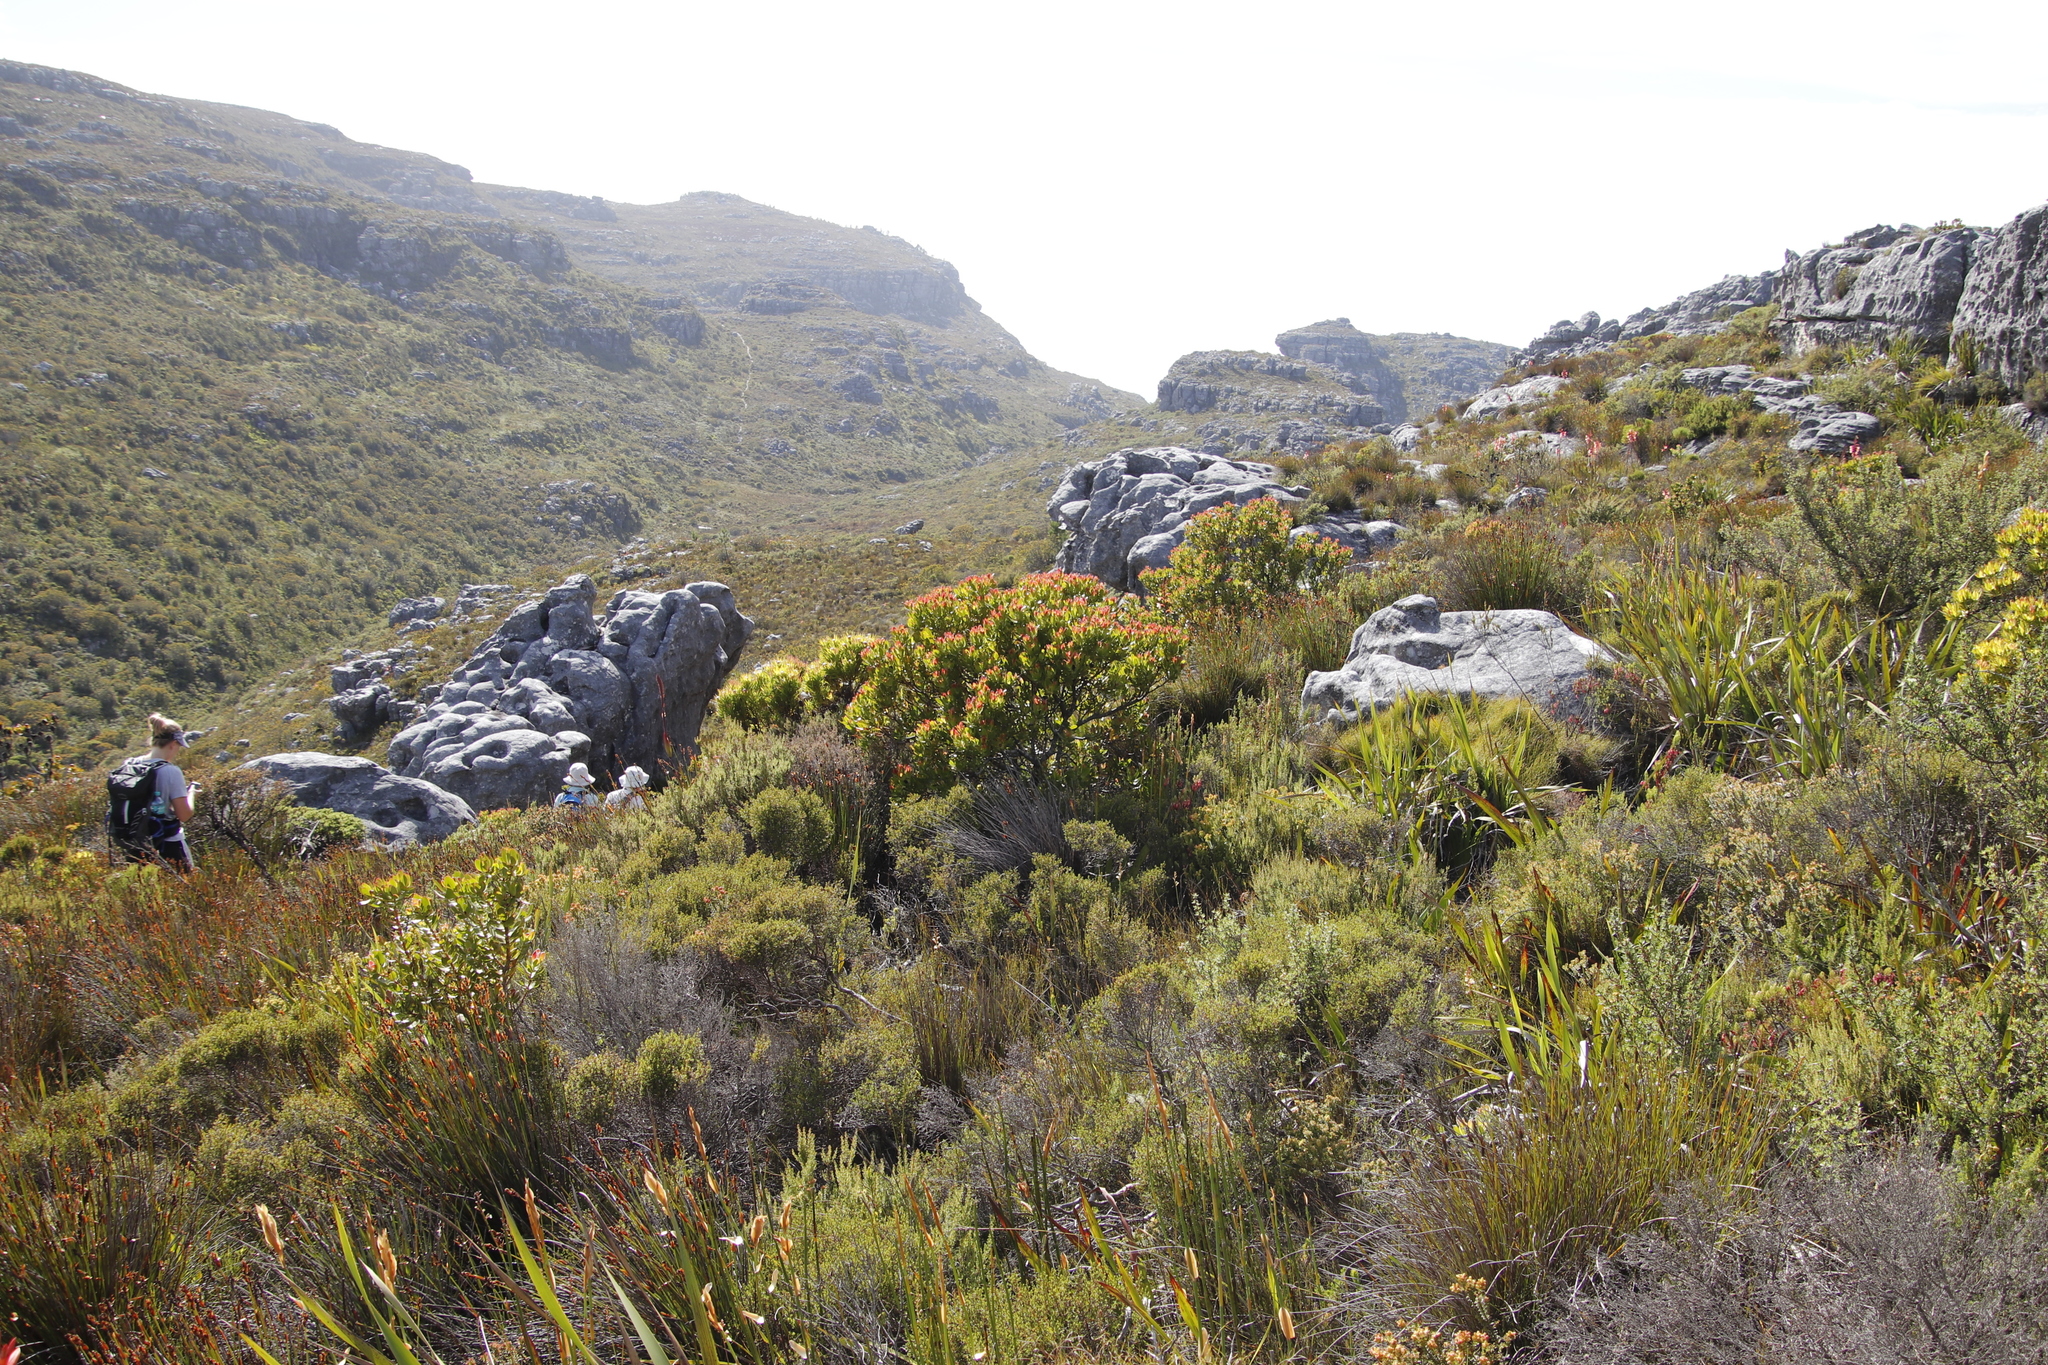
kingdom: Plantae
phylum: Tracheophyta
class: Magnoliopsida
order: Proteales
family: Proteaceae
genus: Leucadendron
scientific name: Leucadendron strobilinum
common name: Mountain rose
